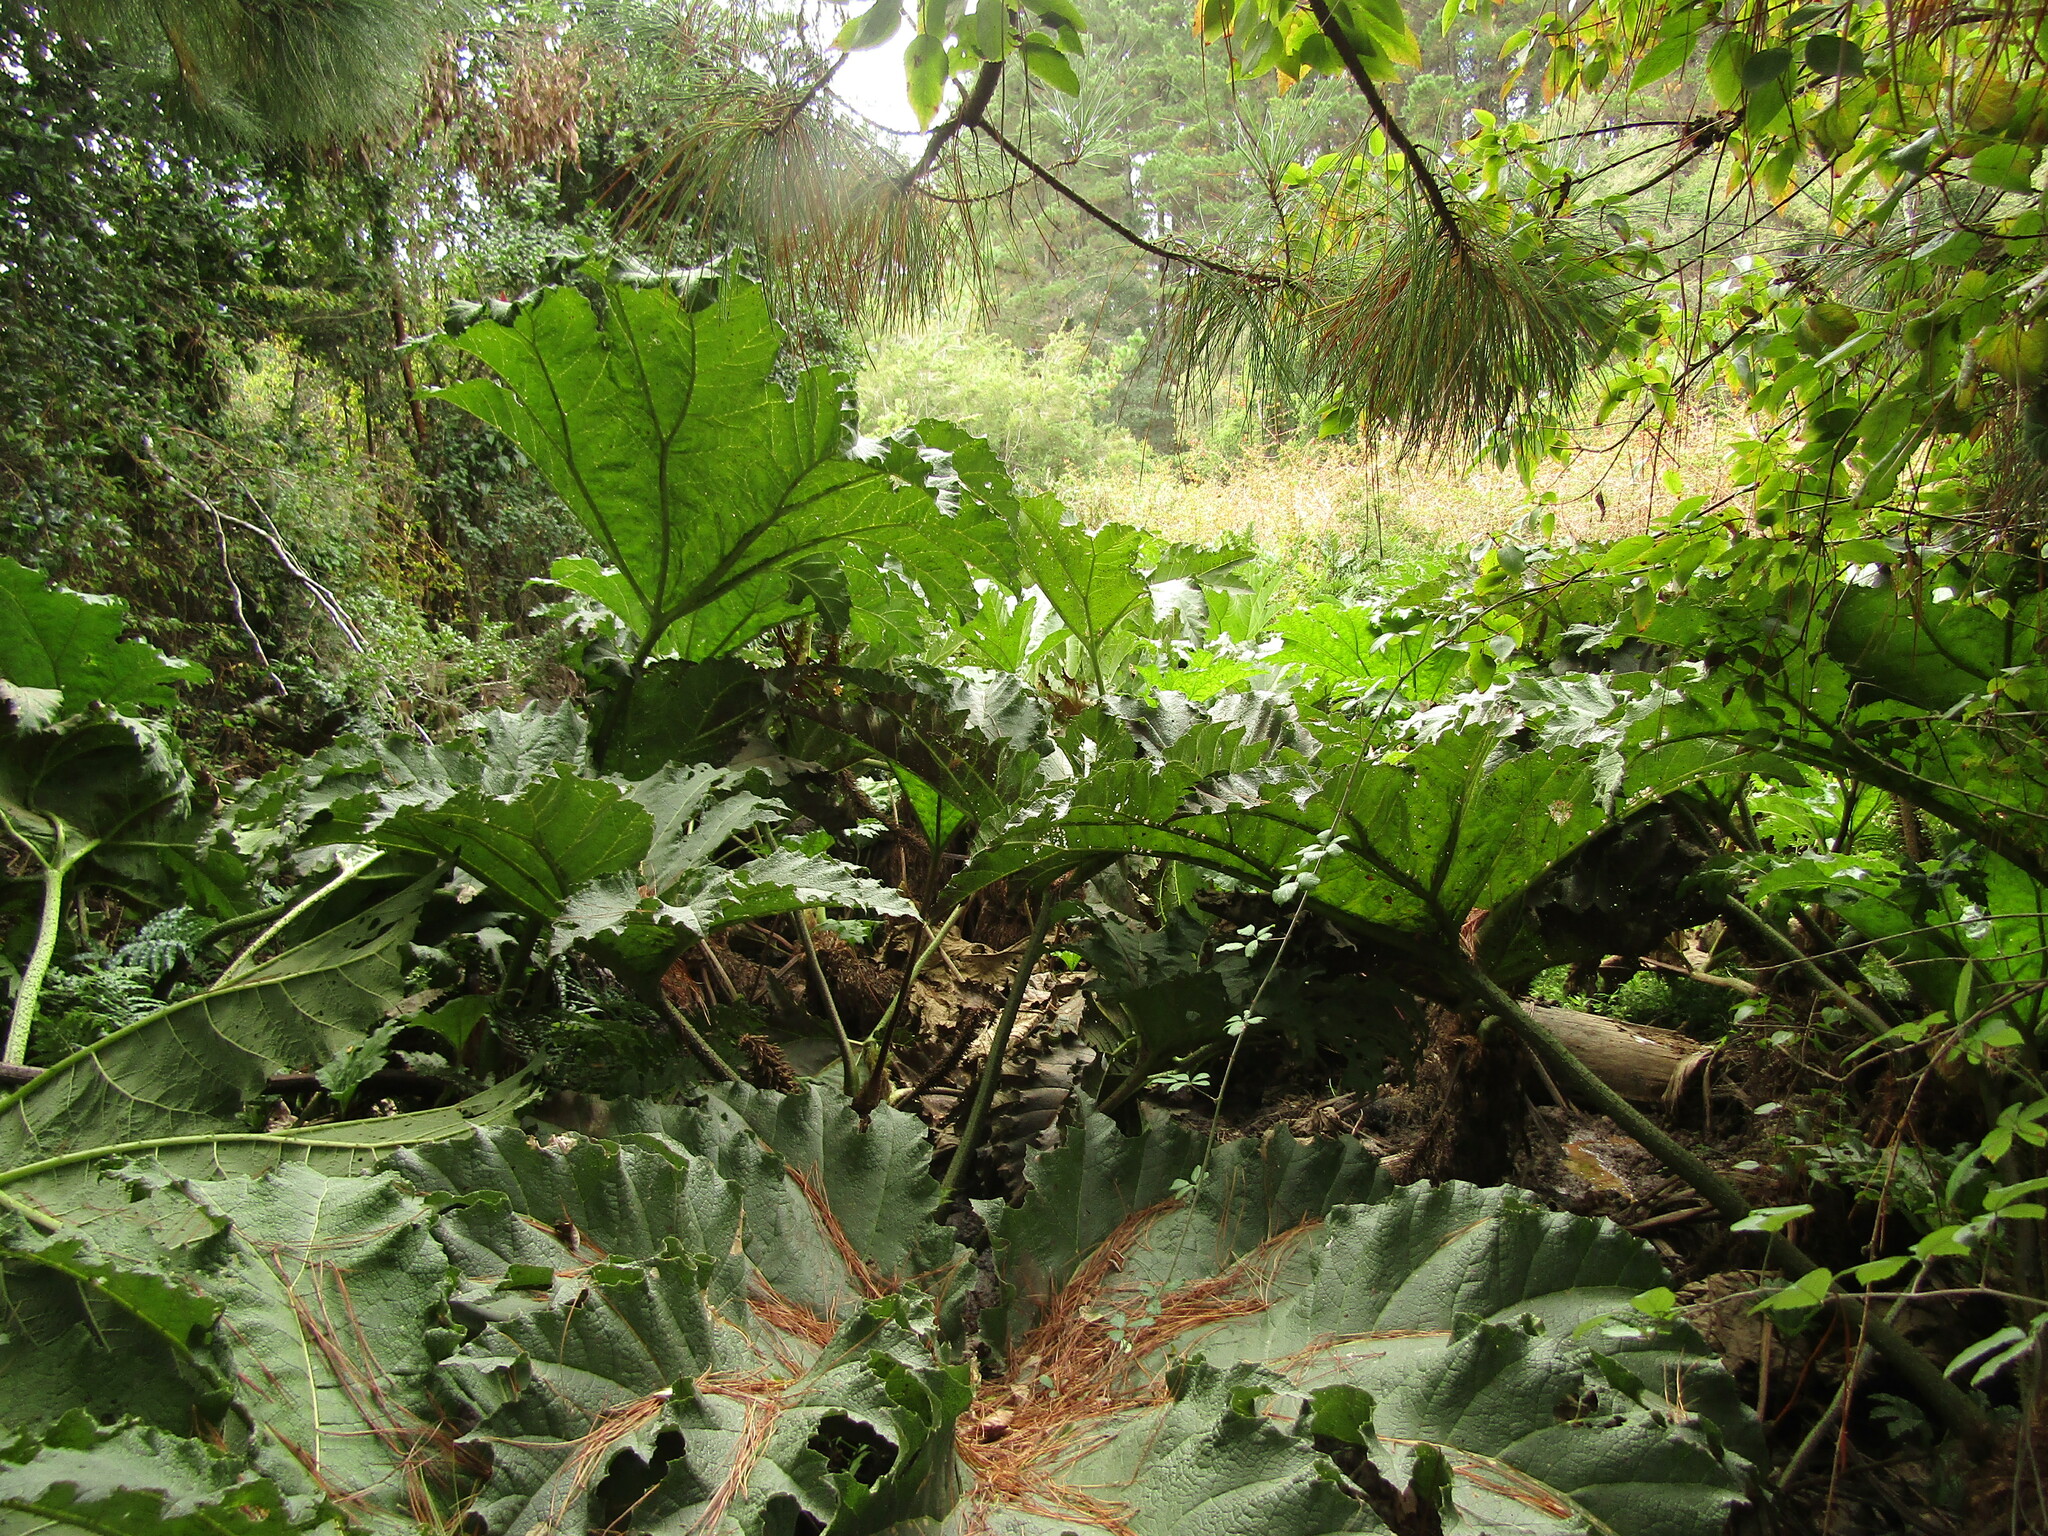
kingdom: Plantae
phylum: Tracheophyta
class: Magnoliopsida
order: Gunnerales
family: Gunneraceae
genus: Gunnera
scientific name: Gunnera tinctoria
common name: Giant-rhubarb
